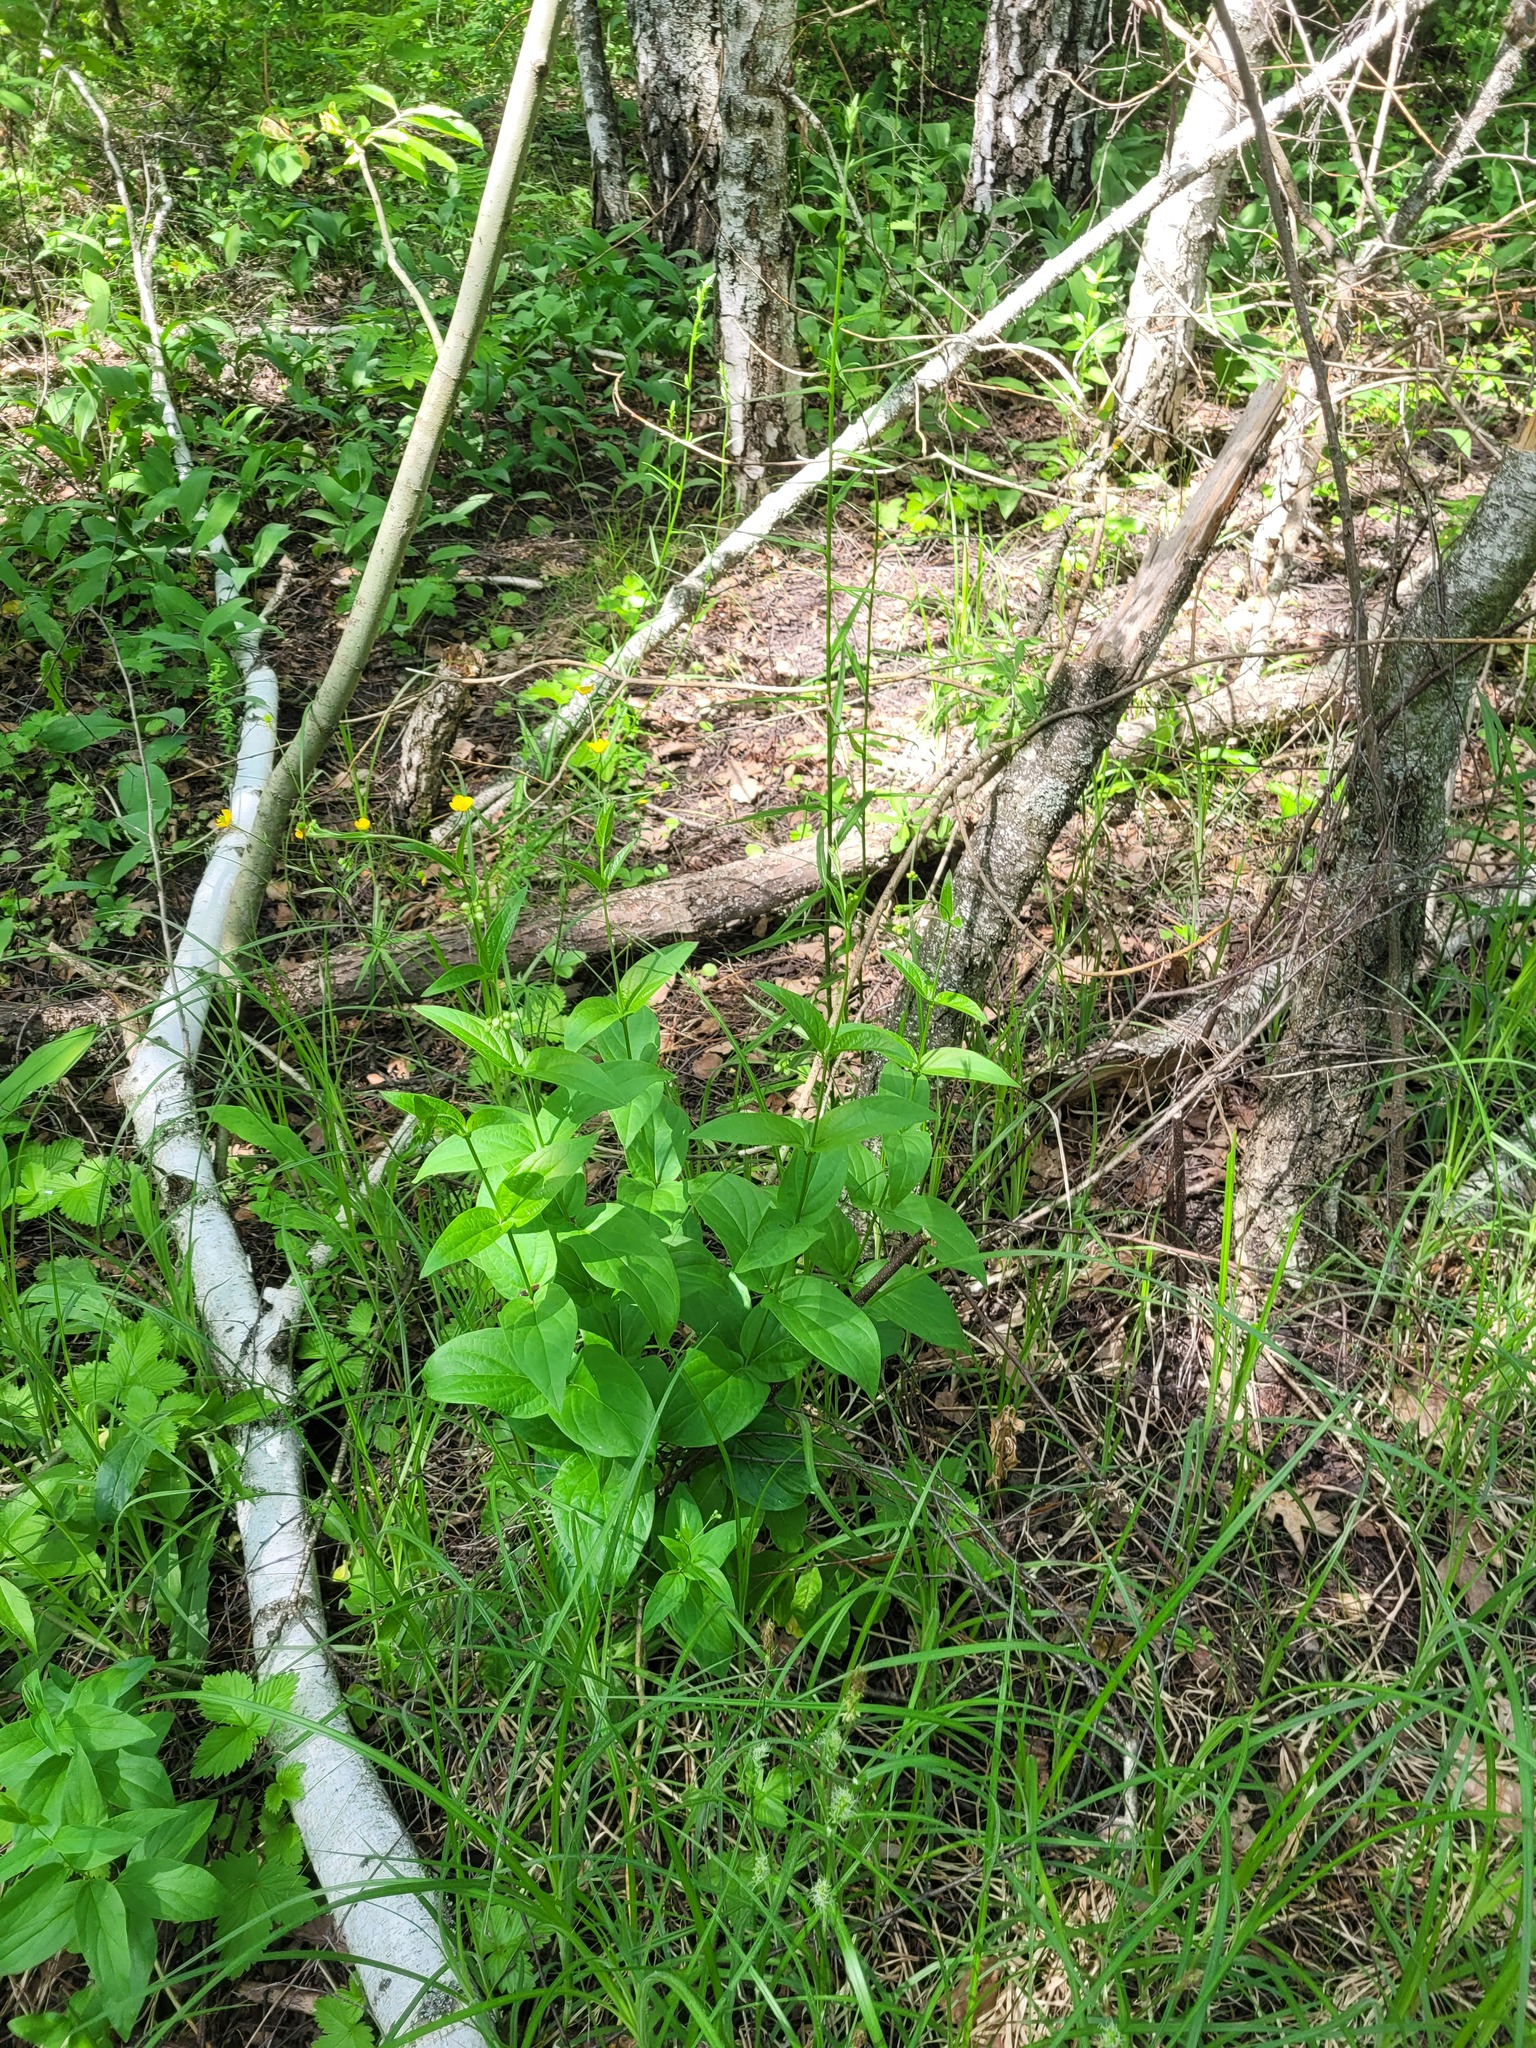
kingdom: Plantae
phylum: Tracheophyta
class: Magnoliopsida
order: Gentianales
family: Apocynaceae
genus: Vincetoxicum
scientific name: Vincetoxicum hirundinaria
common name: White swallowwort
